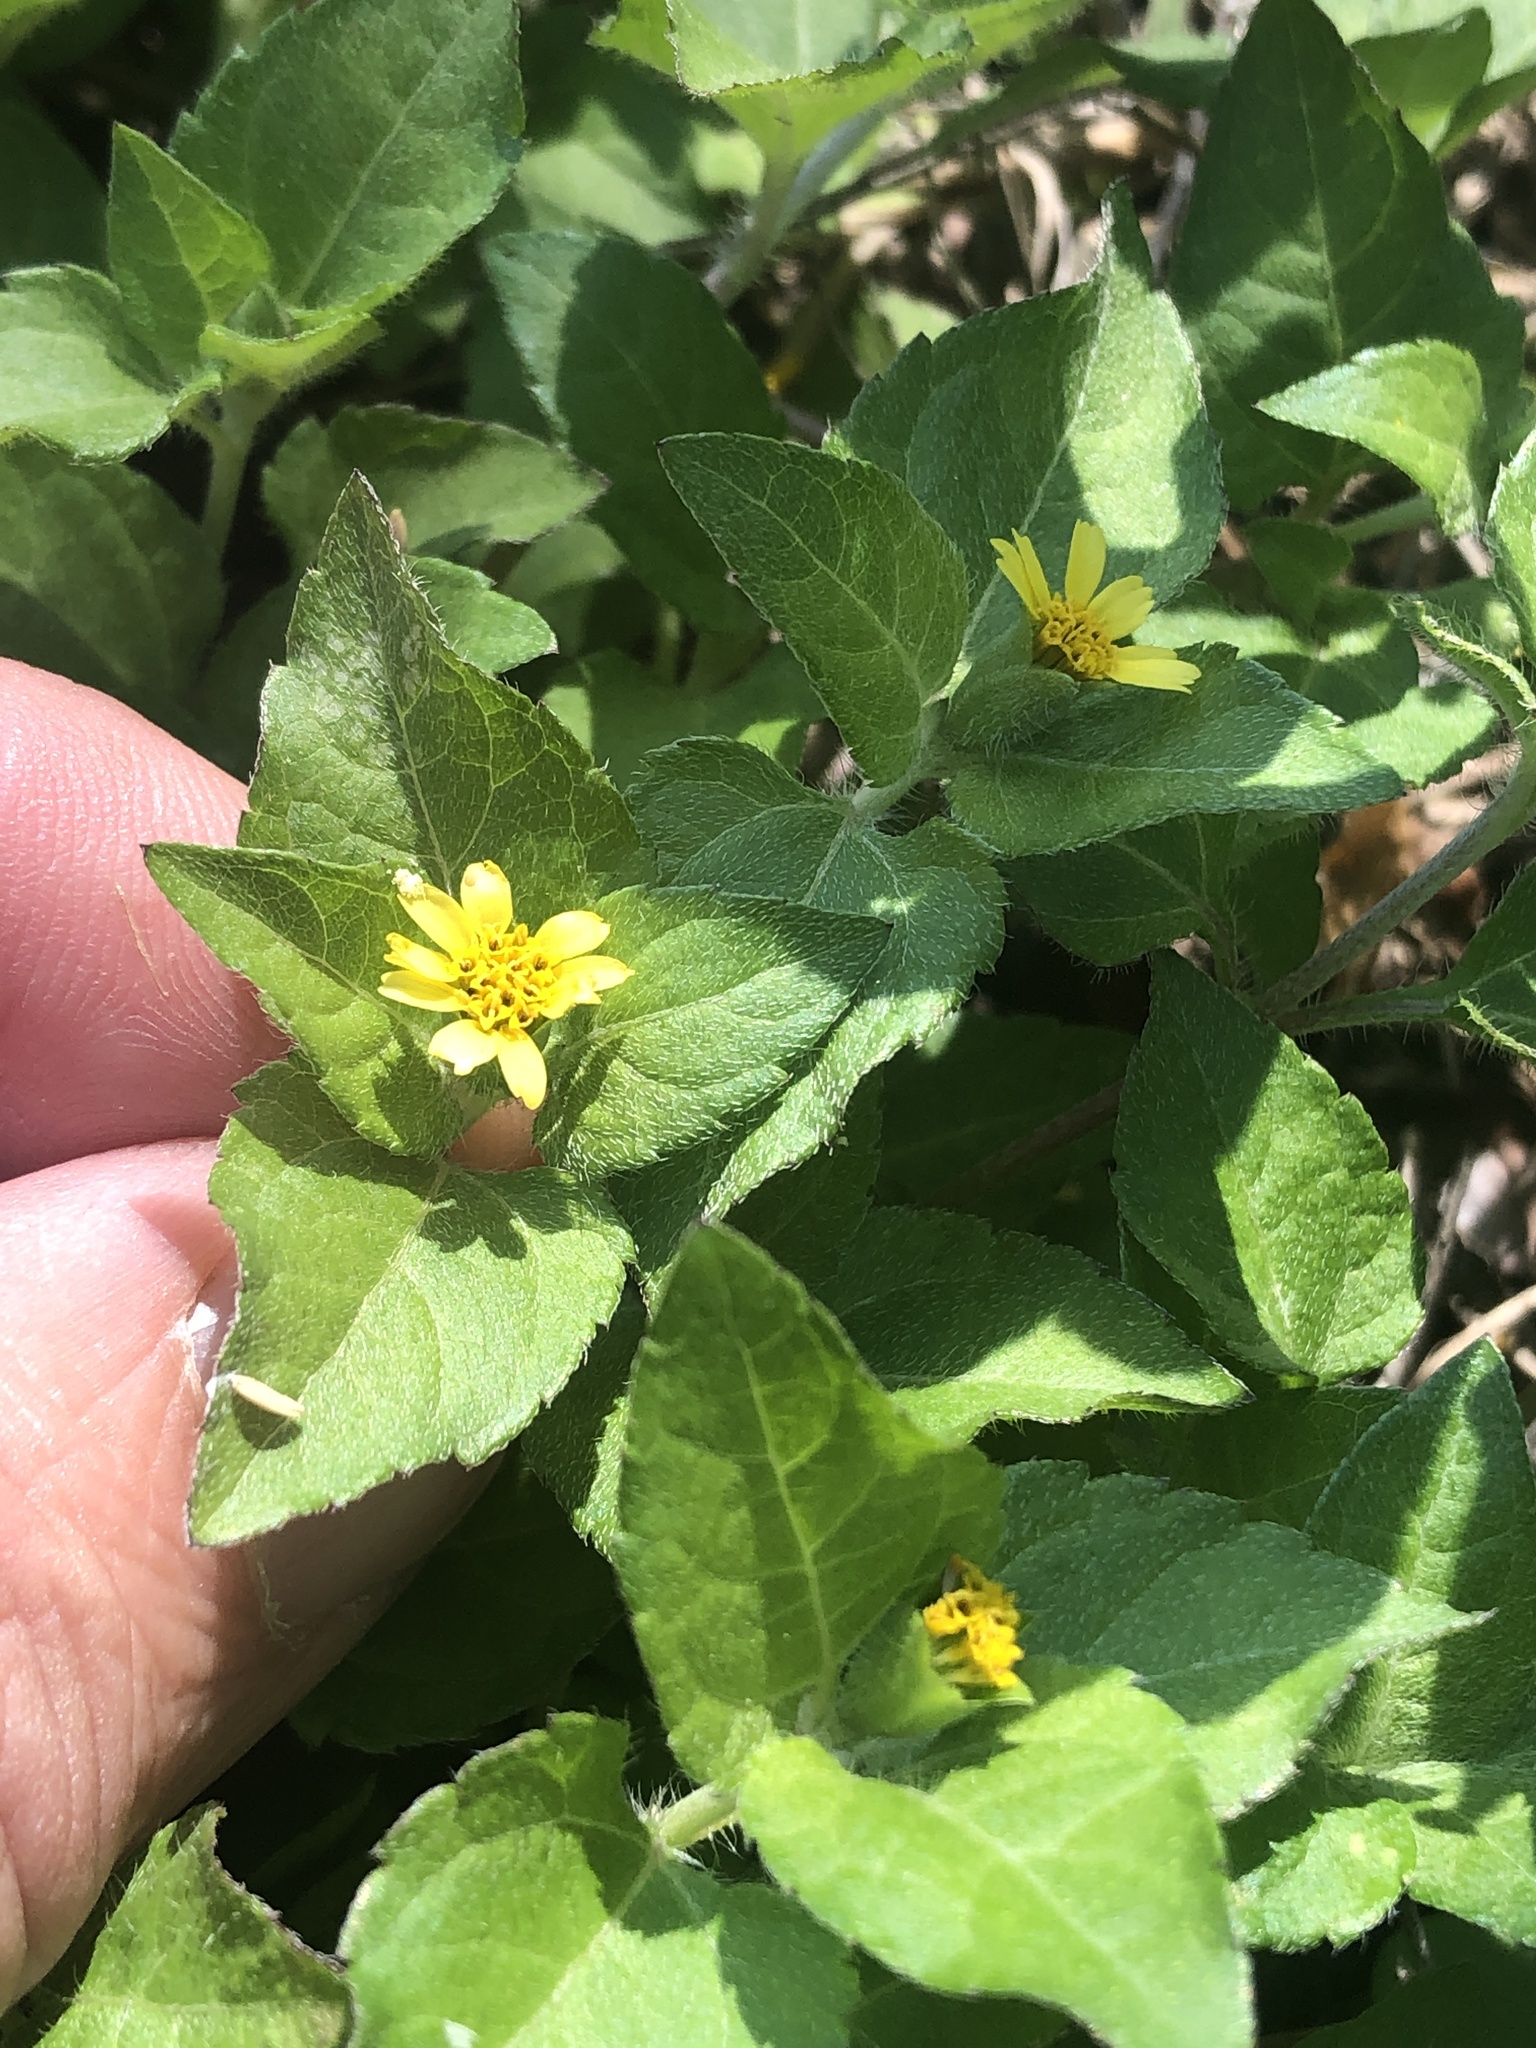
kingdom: Plantae
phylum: Tracheophyta
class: Magnoliopsida
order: Asterales
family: Asteraceae
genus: Calyptocarpus
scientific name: Calyptocarpus vialis
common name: Straggler daisy
